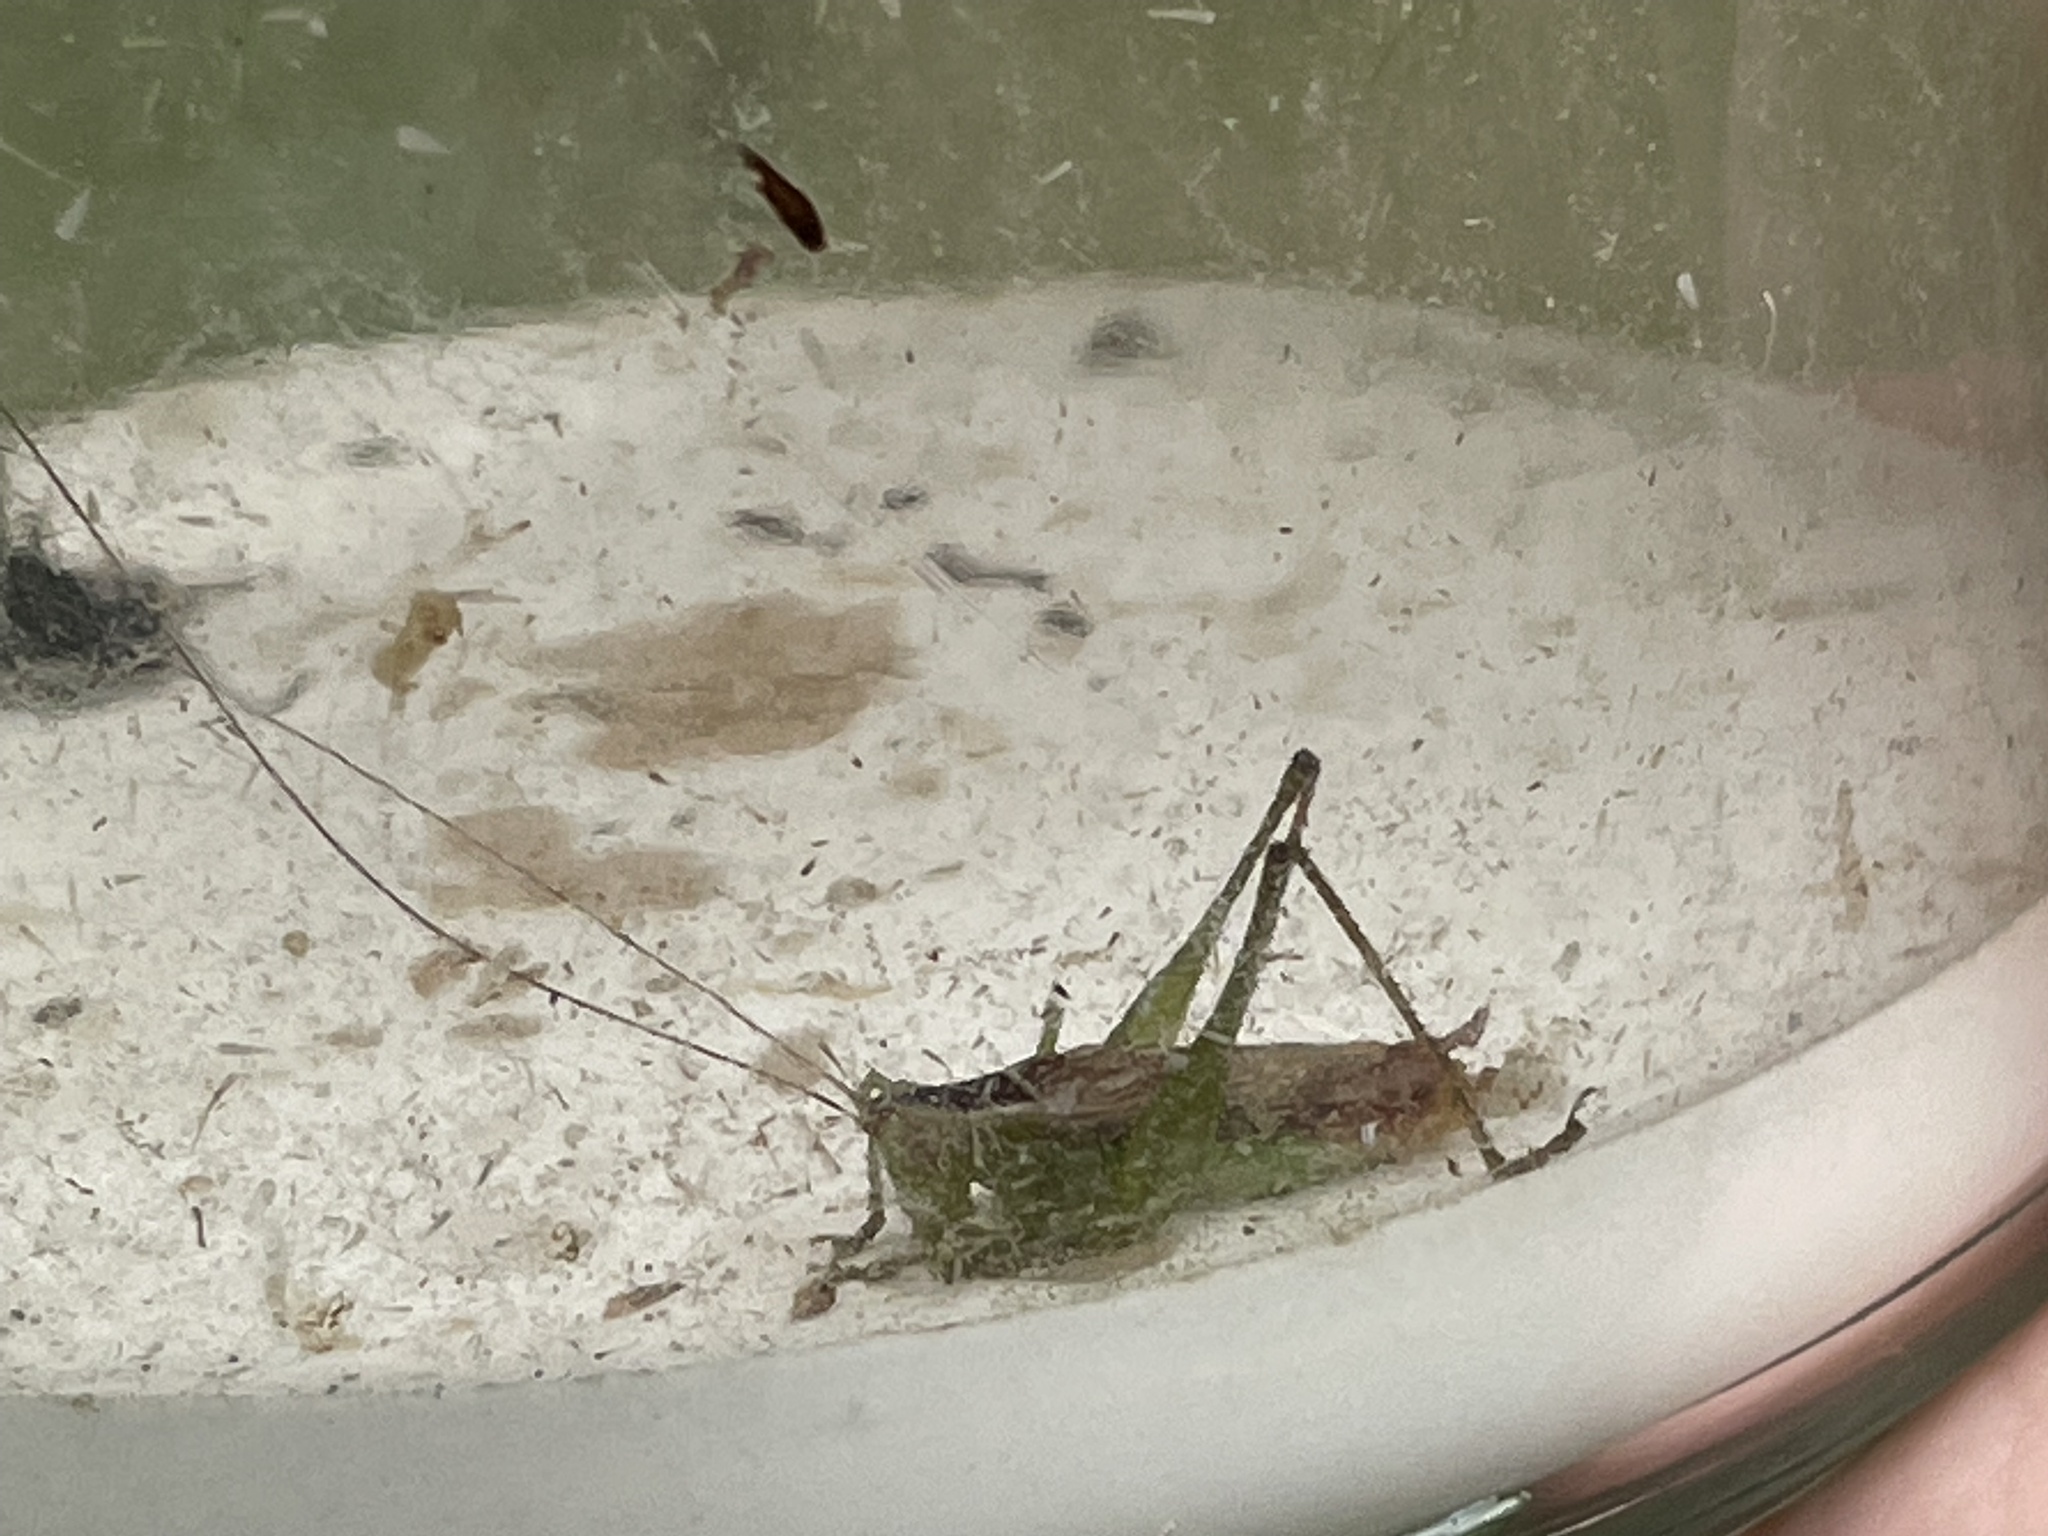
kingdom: Animalia
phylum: Arthropoda
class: Insecta
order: Orthoptera
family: Tettigoniidae
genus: Conocephalus
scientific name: Conocephalus brevipennis
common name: Short-winged meadow katydid
